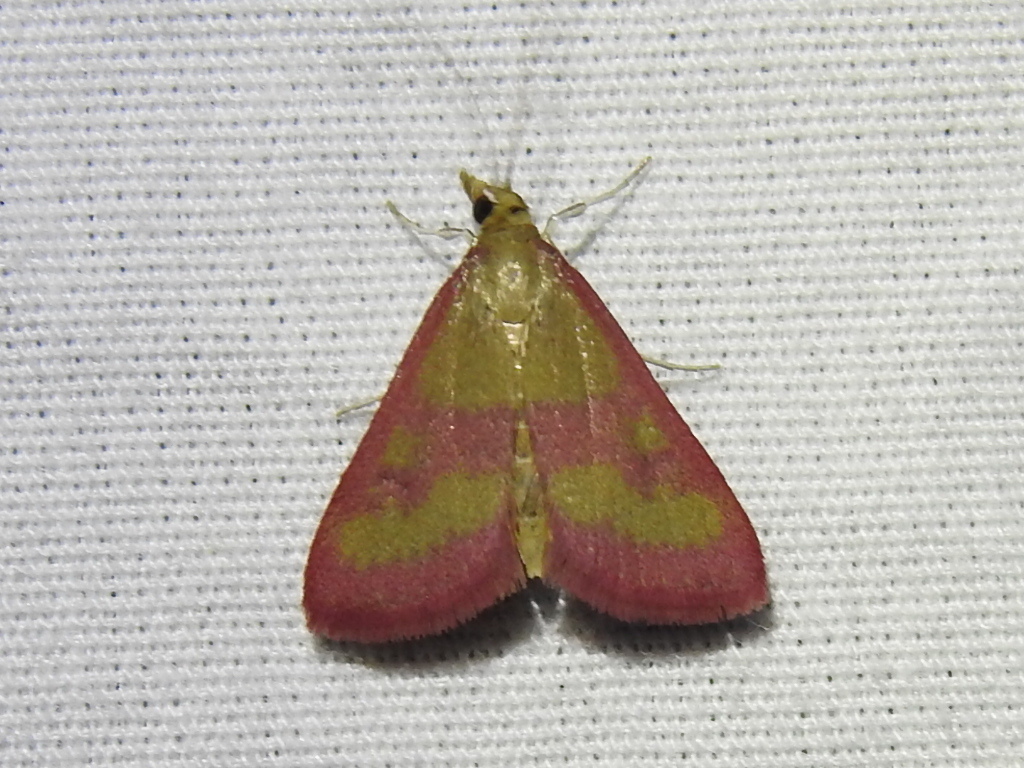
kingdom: Animalia
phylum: Arthropoda
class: Insecta
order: Lepidoptera
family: Crambidae
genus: Pyrausta
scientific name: Pyrausta laticlavia
